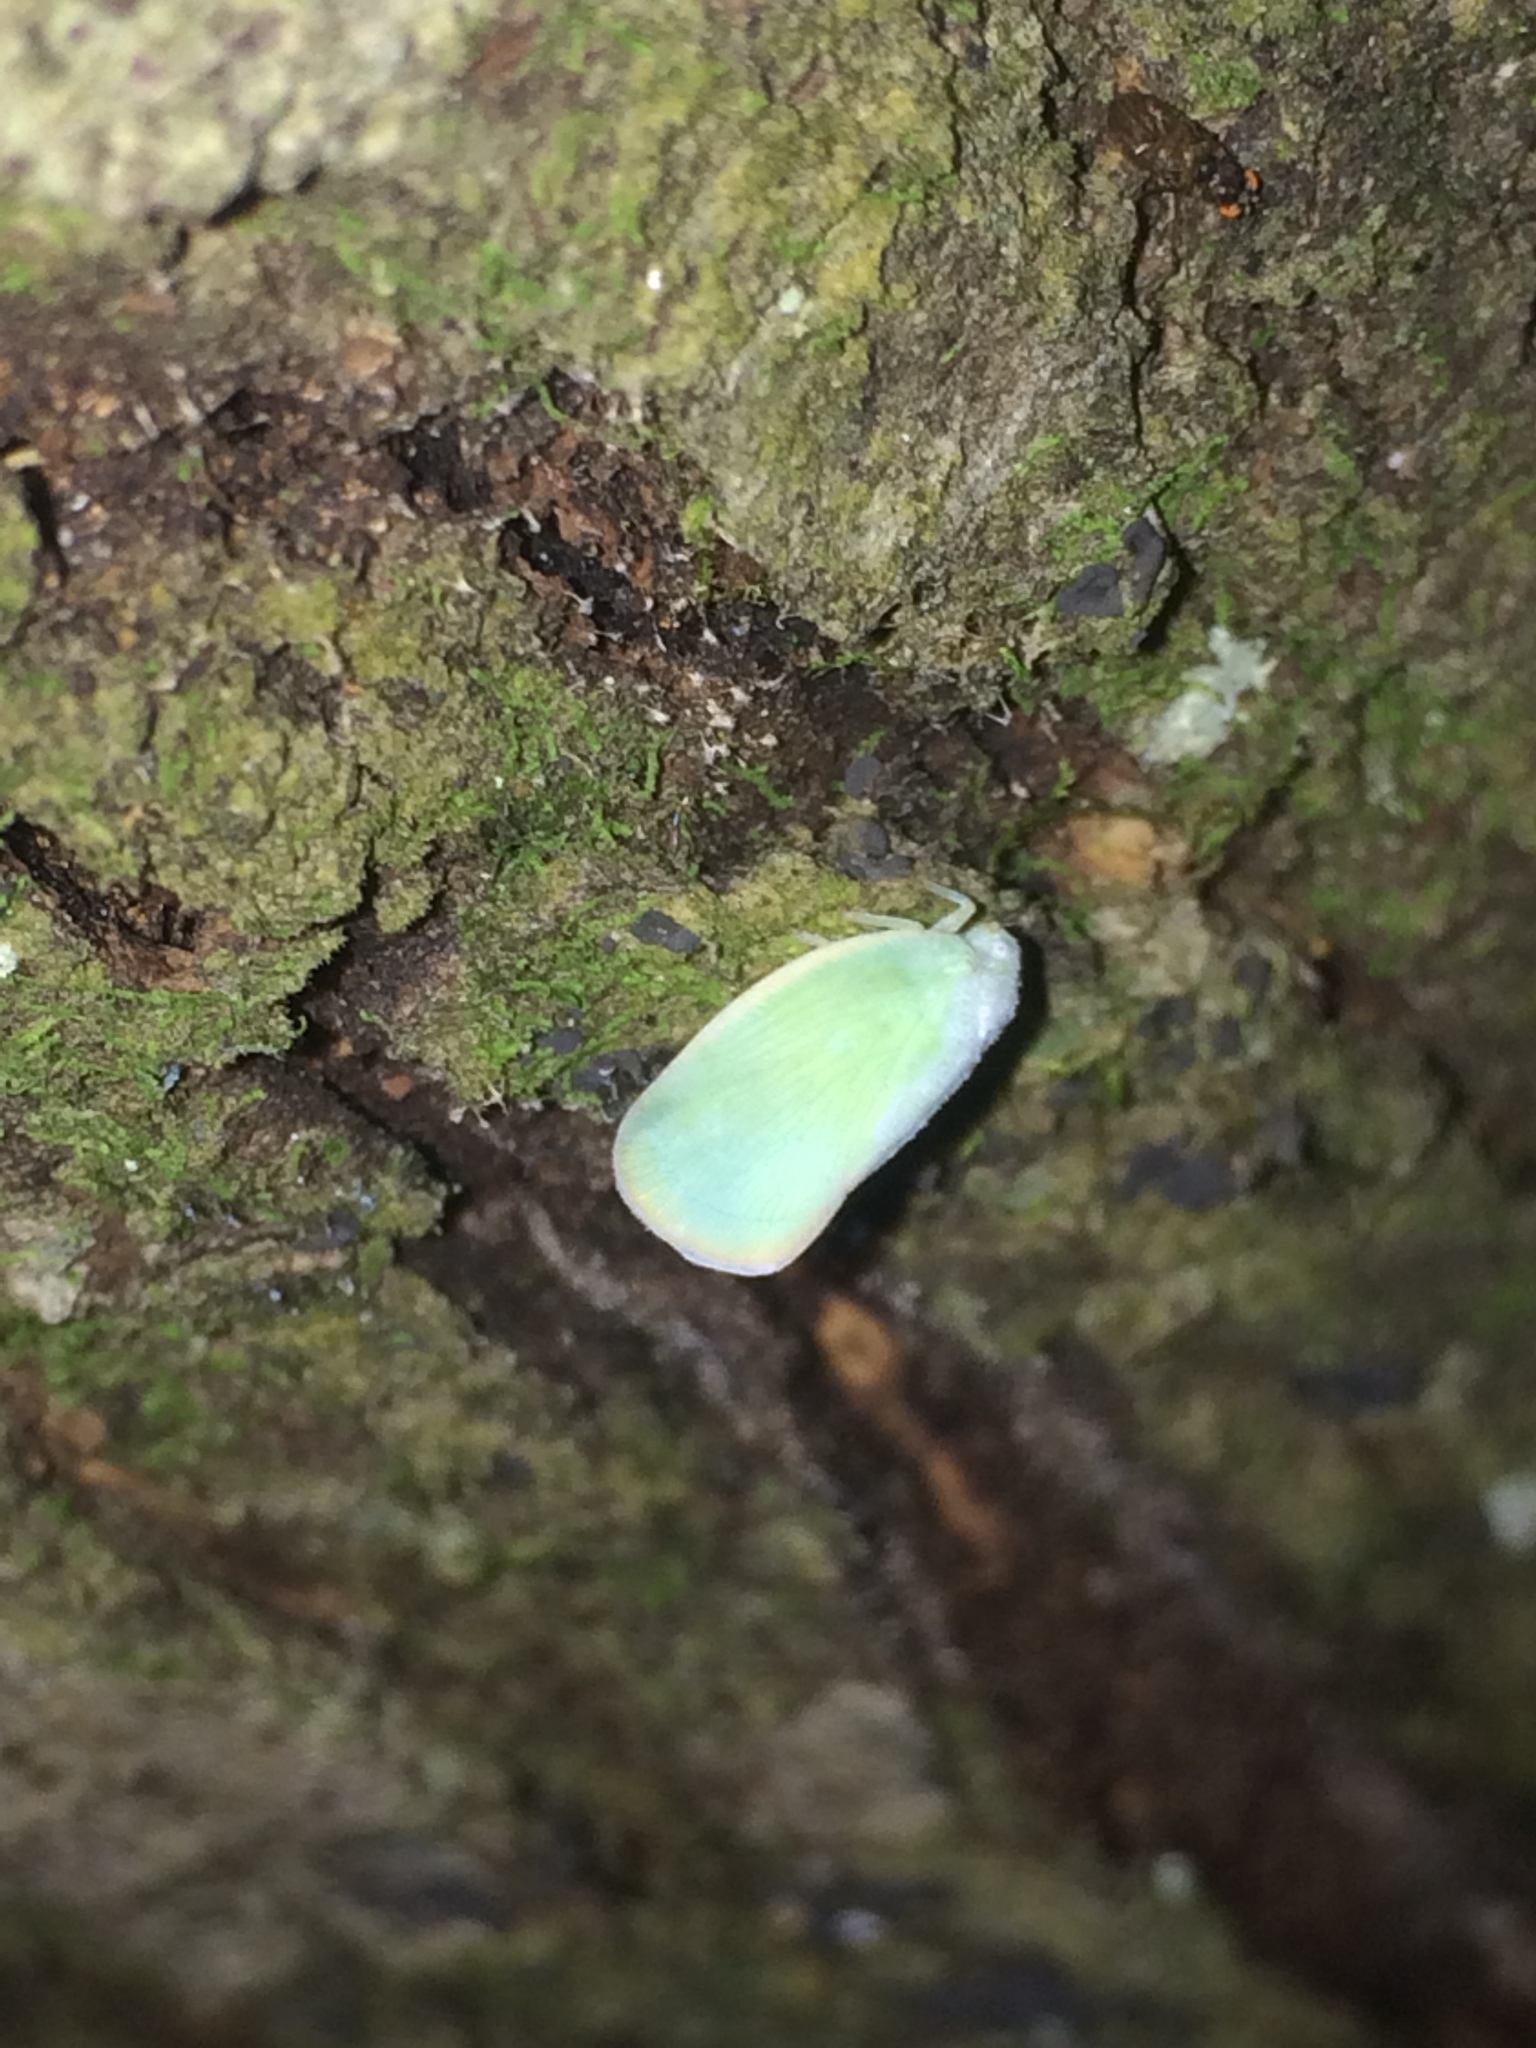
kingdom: Animalia
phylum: Arthropoda
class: Insecta
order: Hemiptera
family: Flatidae
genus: Ormenoides
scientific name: Ormenoides venusta
